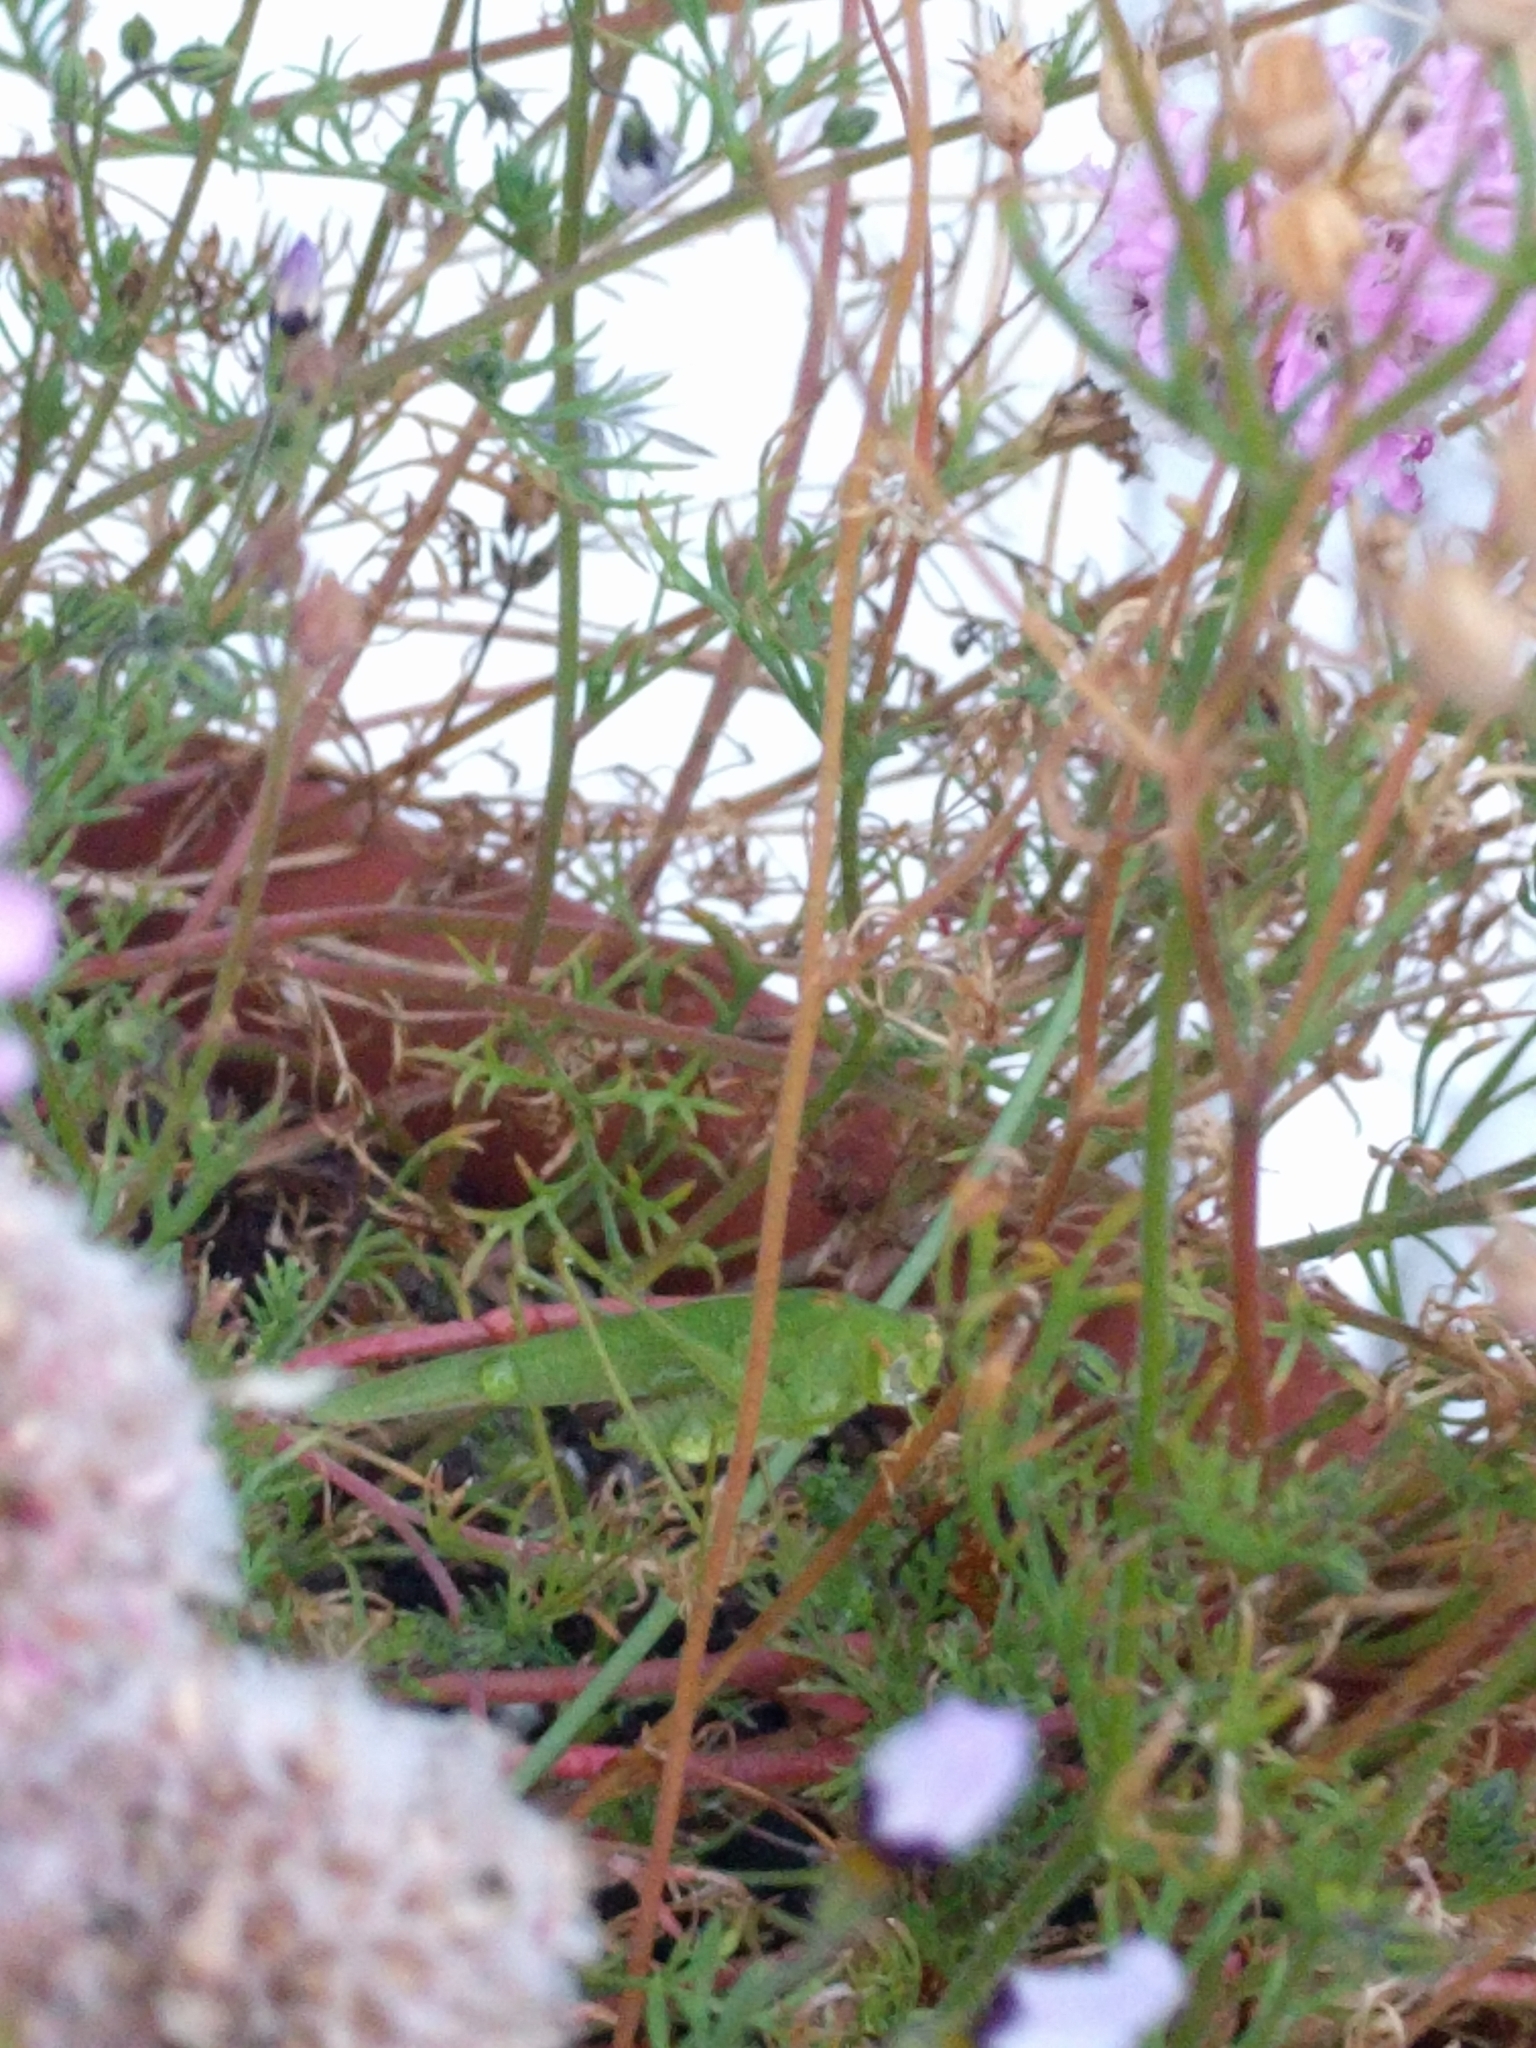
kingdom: Animalia
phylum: Arthropoda
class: Insecta
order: Orthoptera
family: Tettigoniidae
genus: Phaneroptera
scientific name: Phaneroptera nana
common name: Southern sickle bush-cricket
